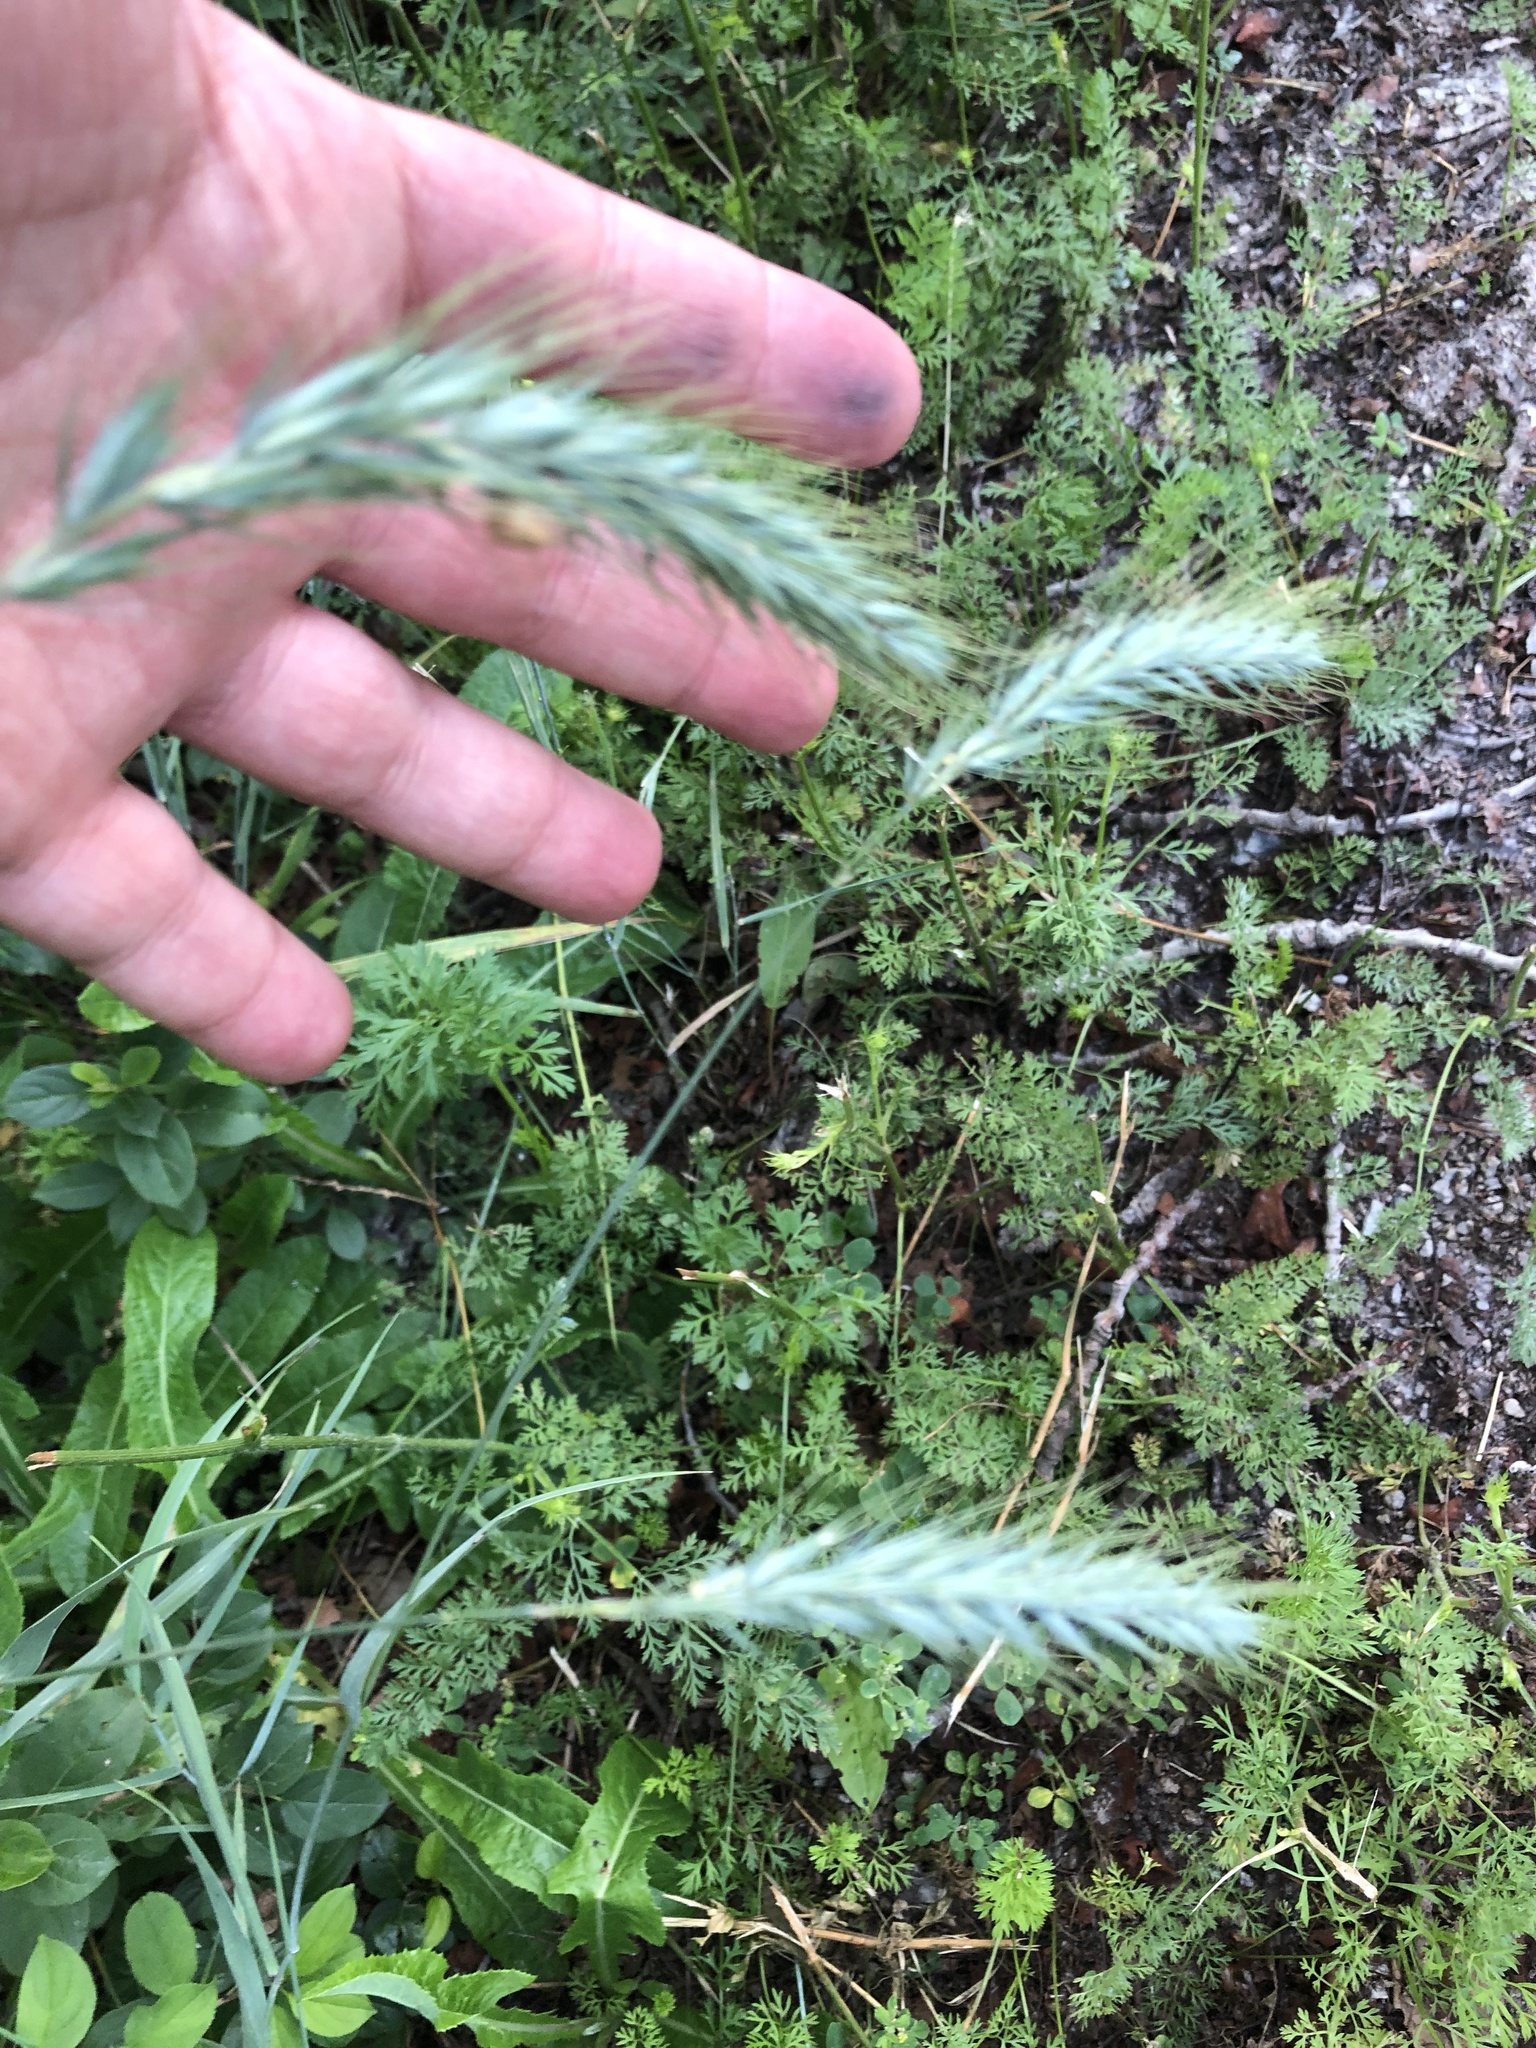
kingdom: Plantae
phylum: Tracheophyta
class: Liliopsida
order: Poales
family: Poaceae
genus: Elymus
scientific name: Elymus canadensis
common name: Canada wild rye
